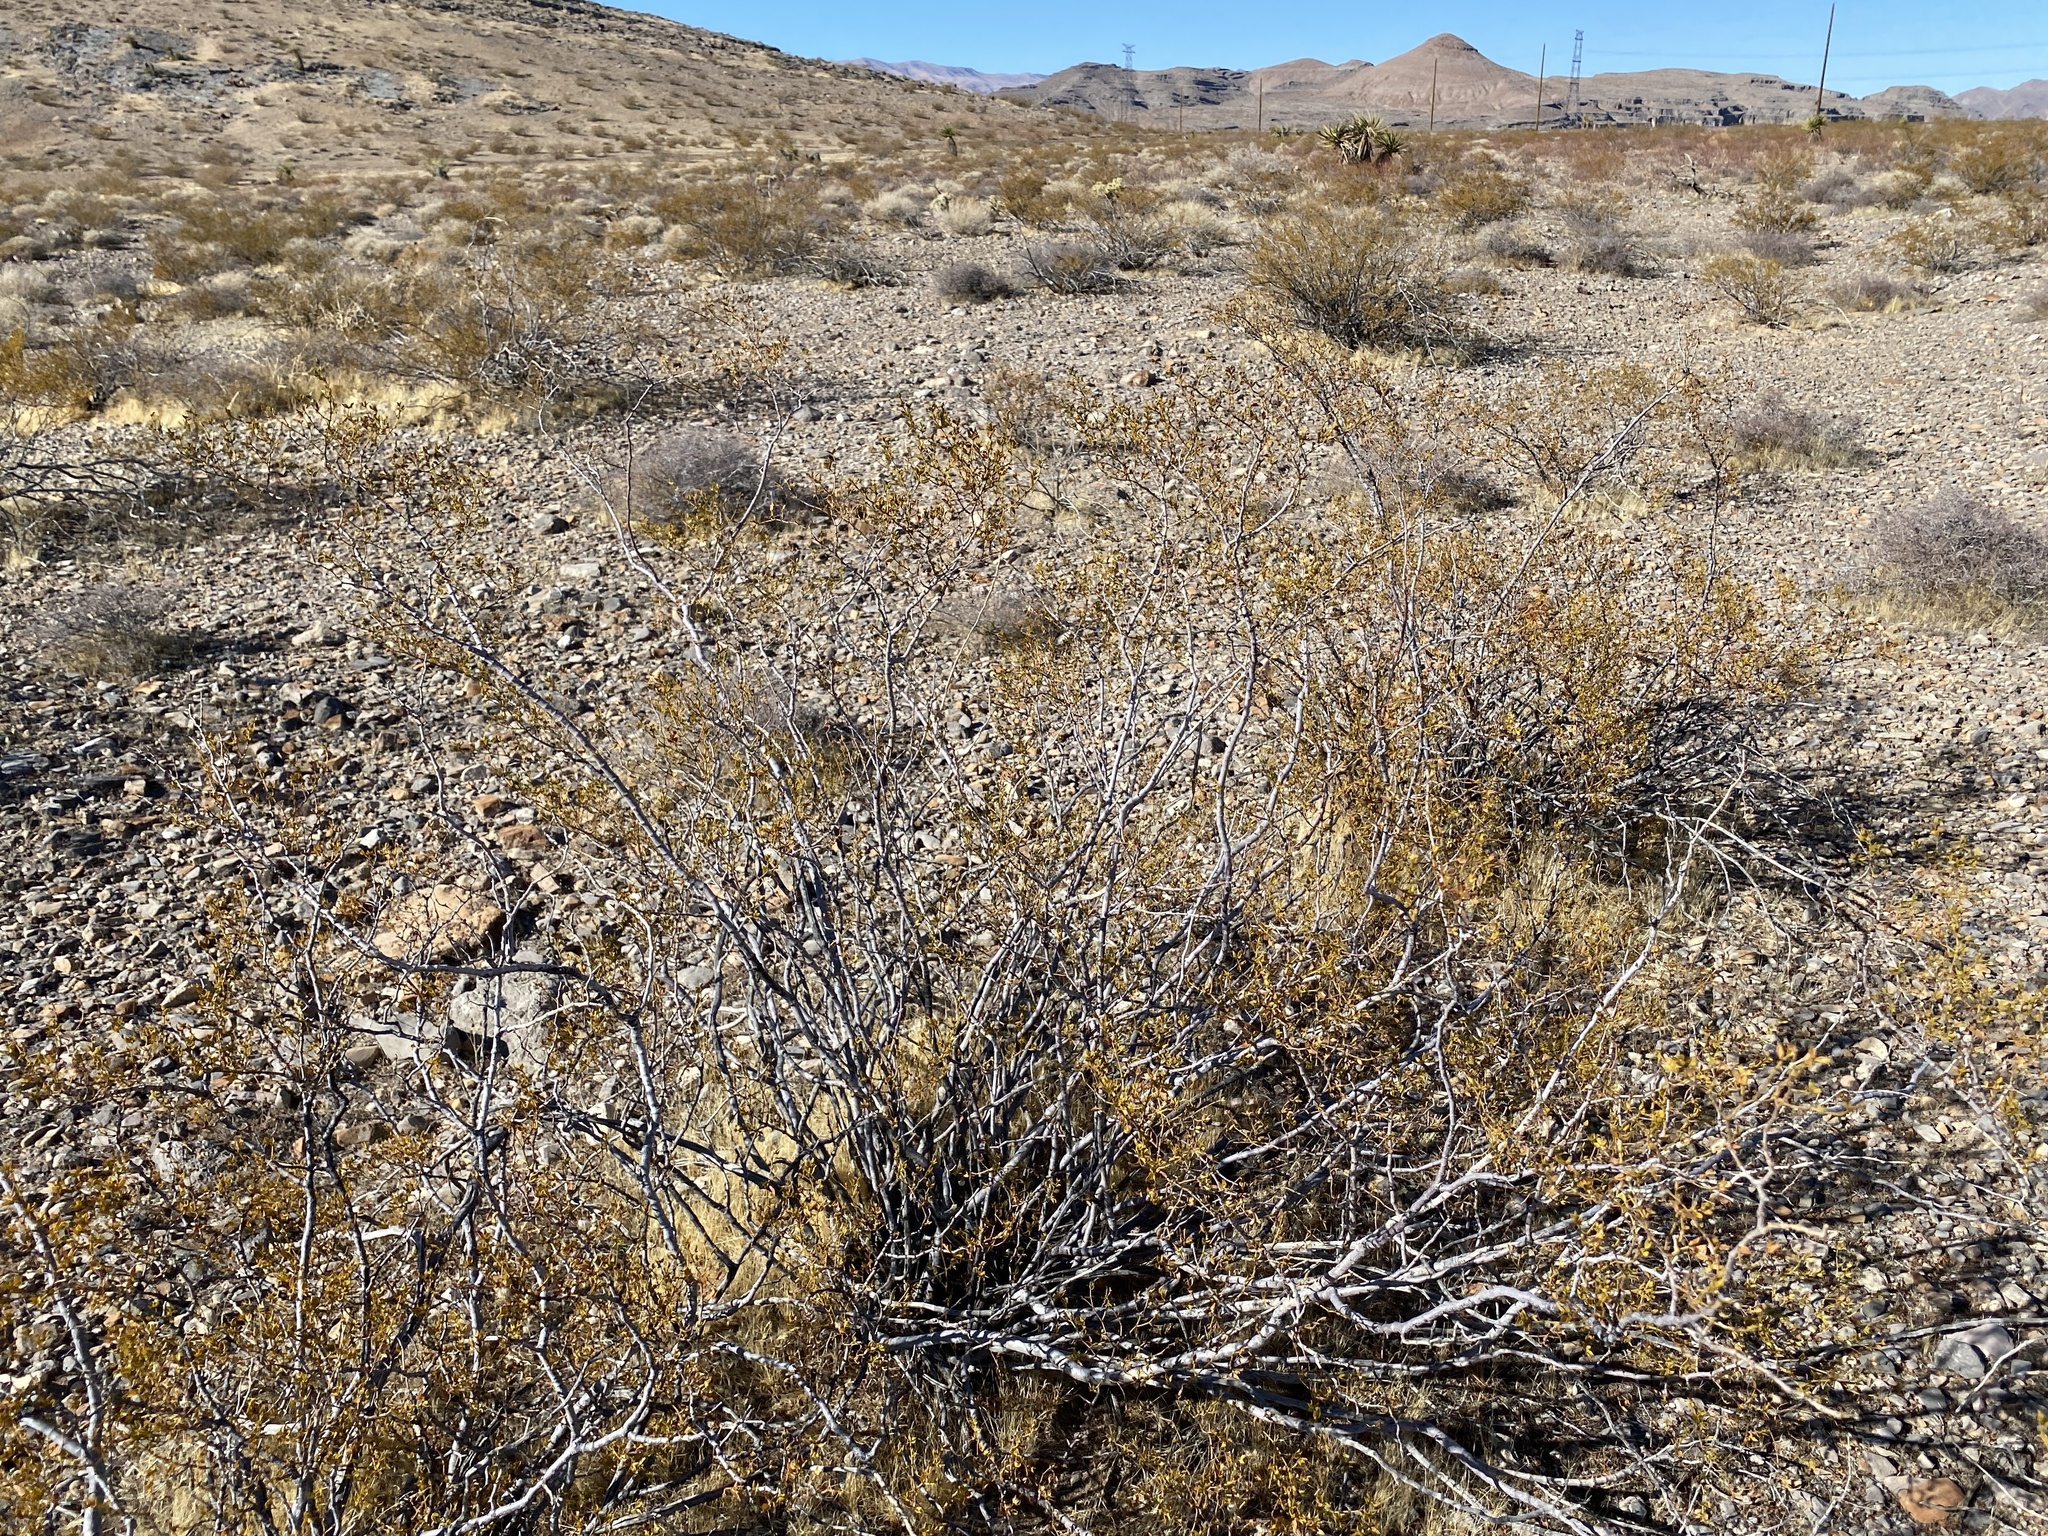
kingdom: Plantae
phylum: Tracheophyta
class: Magnoliopsida
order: Zygophyllales
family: Zygophyllaceae
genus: Larrea
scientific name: Larrea tridentata
